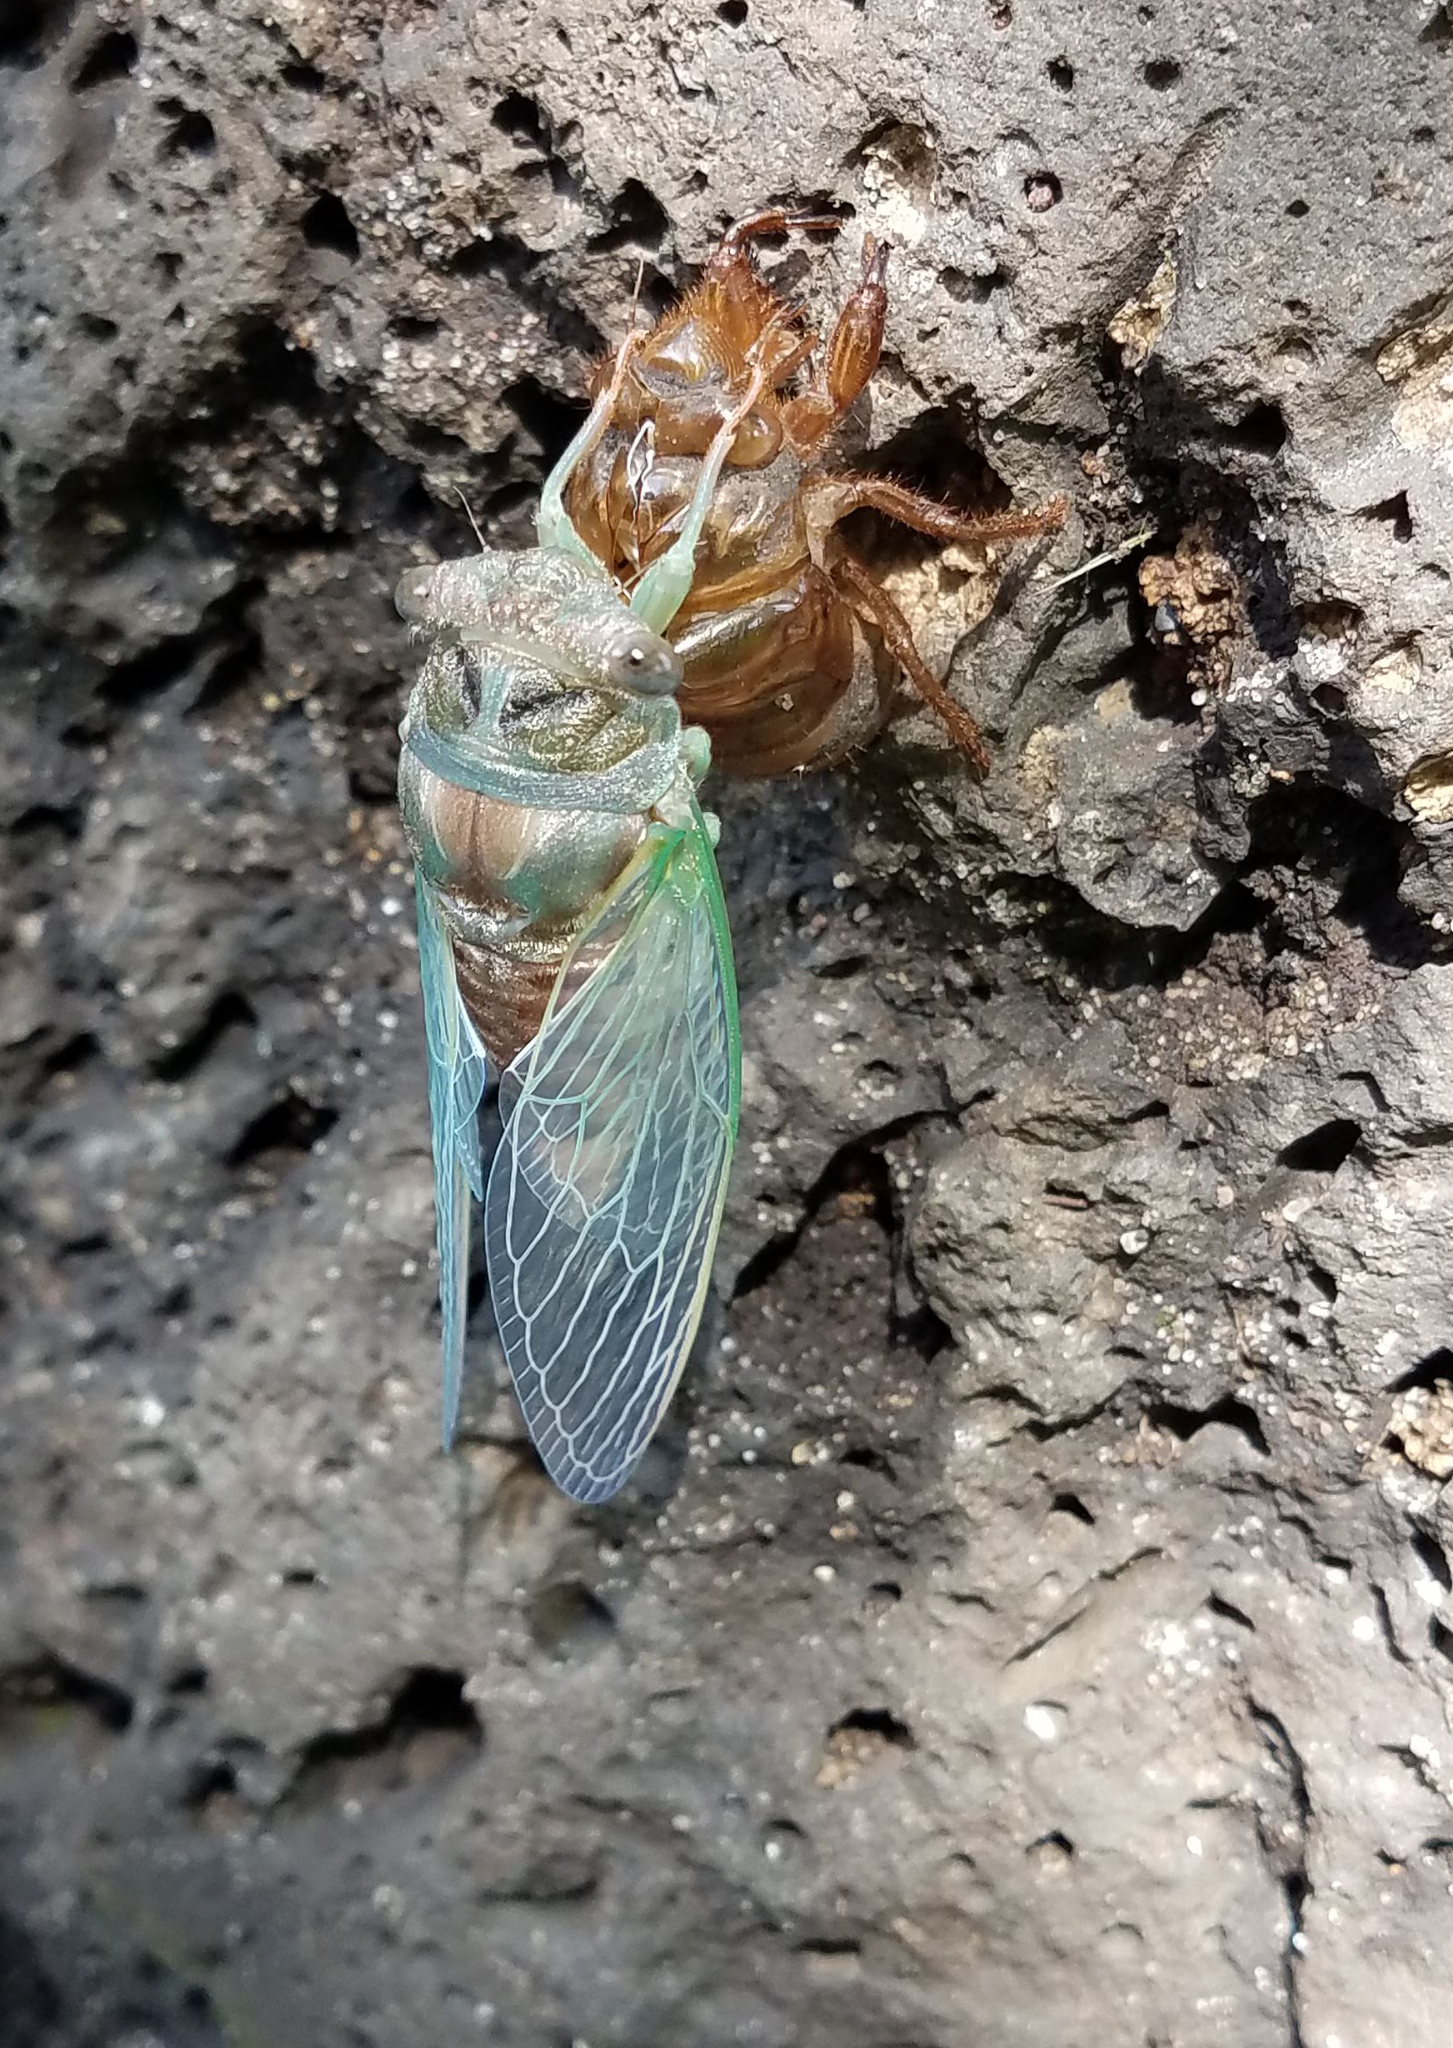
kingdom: Animalia
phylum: Arthropoda
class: Insecta
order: Hemiptera
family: Cicadidae
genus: Neotibicen
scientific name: Neotibicen canicularis
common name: God-day cicada
